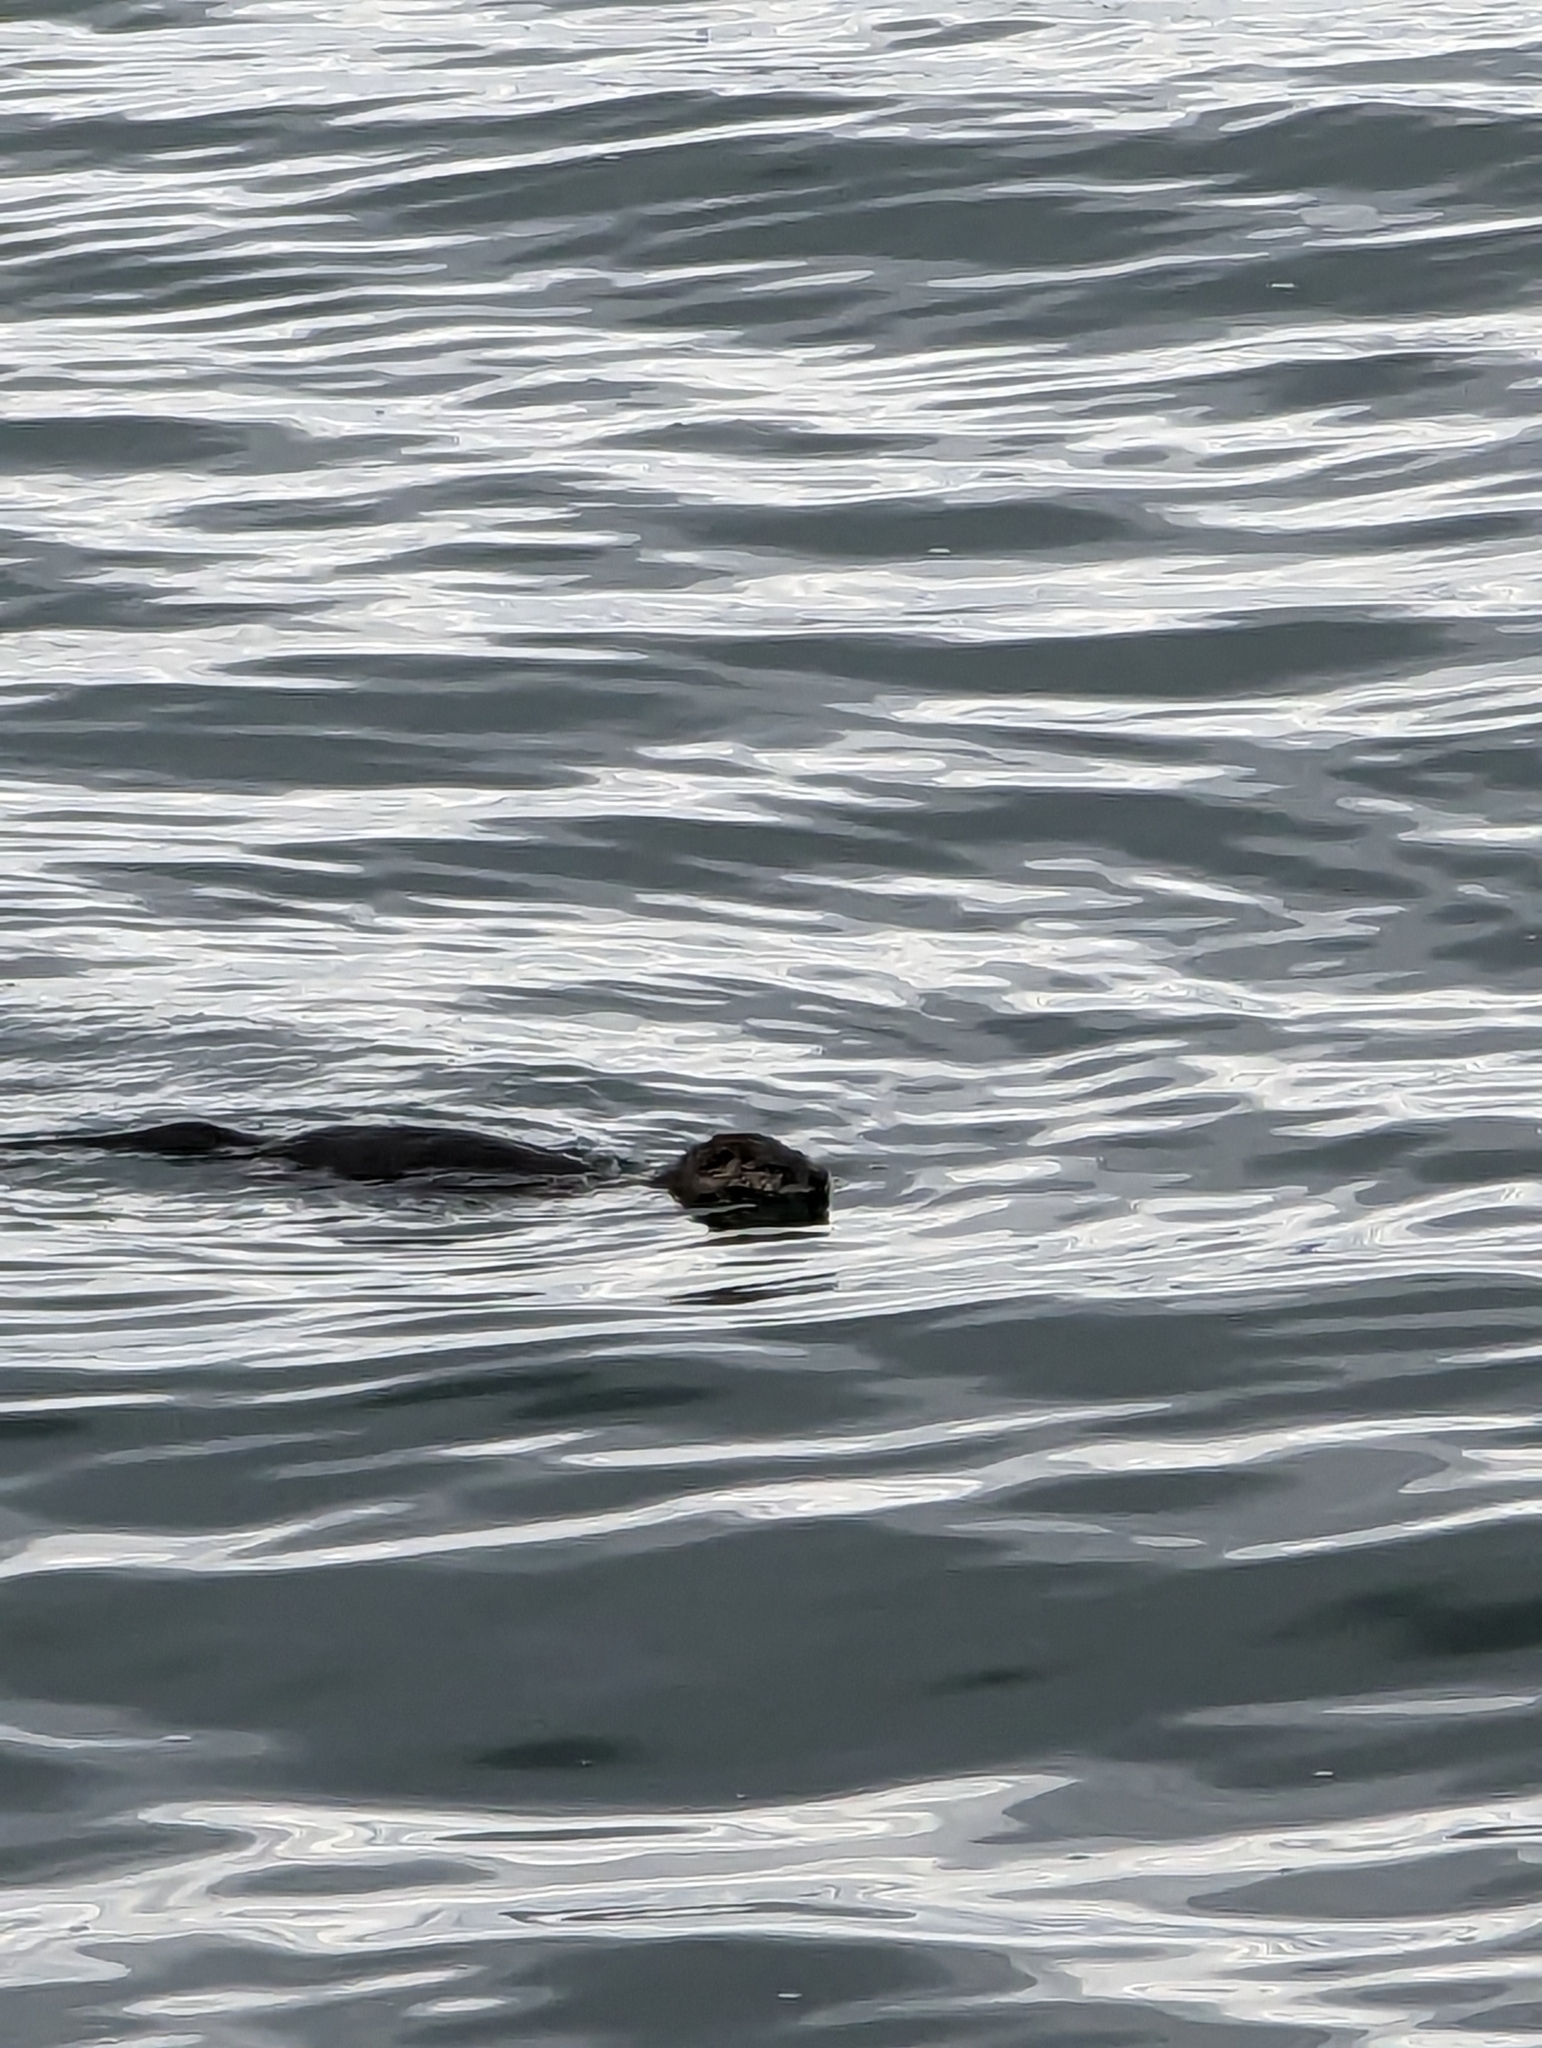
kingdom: Animalia
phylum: Chordata
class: Mammalia
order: Carnivora
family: Mustelidae
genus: Lontra
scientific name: Lontra canadensis
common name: North american river otter
